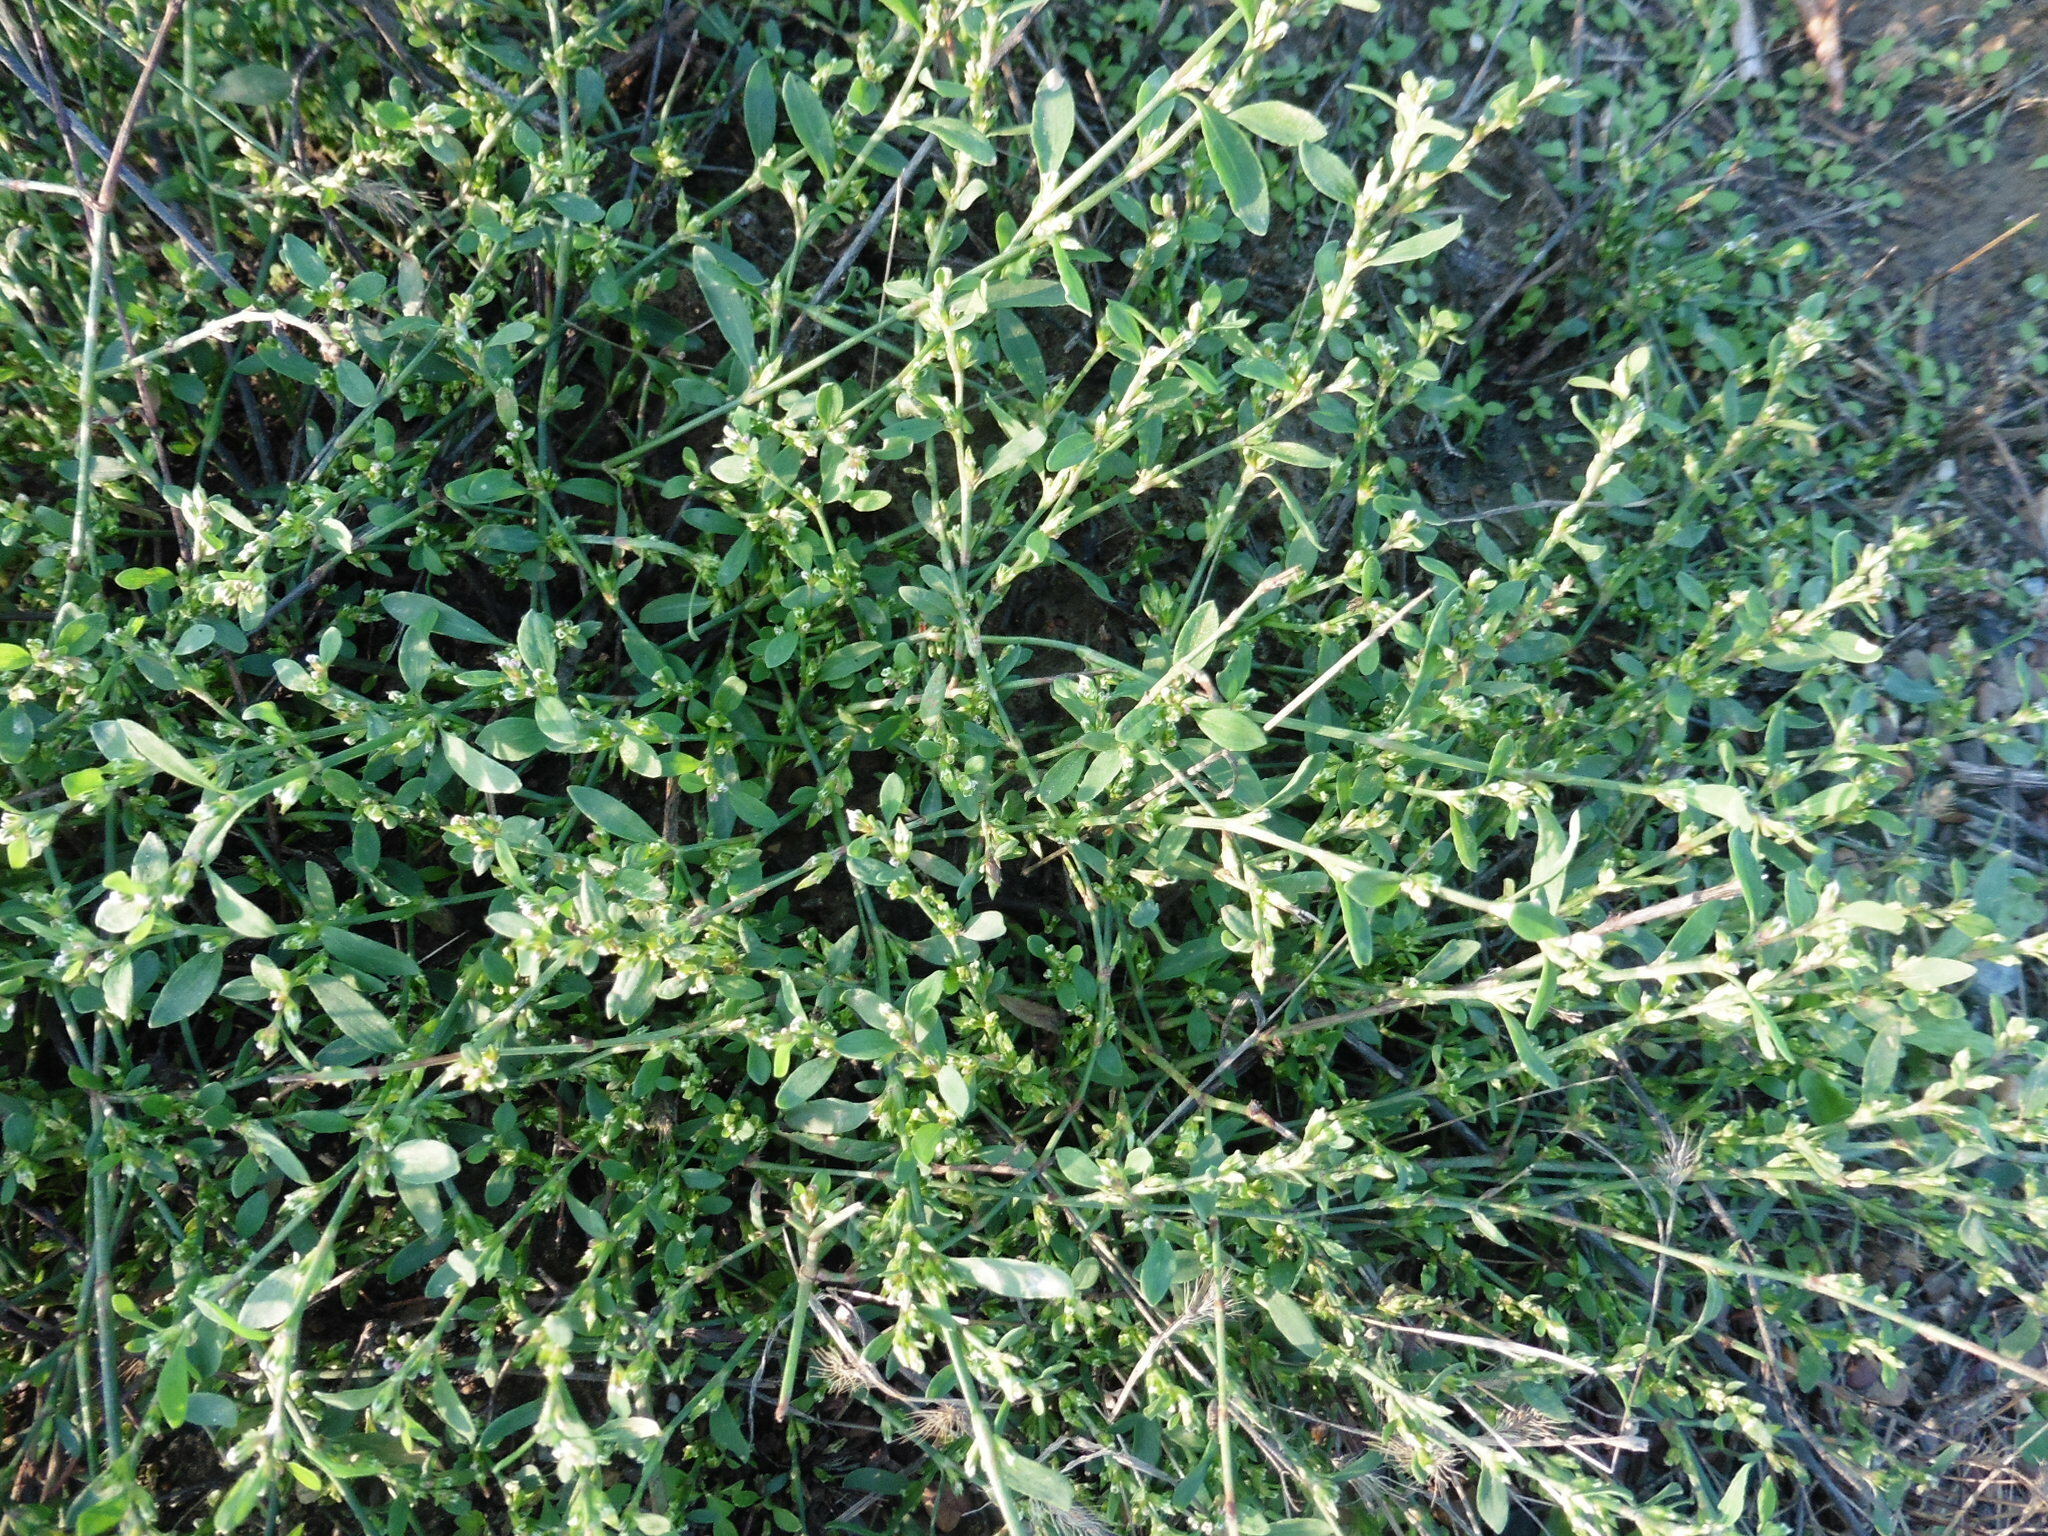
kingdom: Plantae
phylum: Tracheophyta
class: Magnoliopsida
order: Caryophyllales
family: Polygonaceae
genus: Polygonum
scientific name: Polygonum
